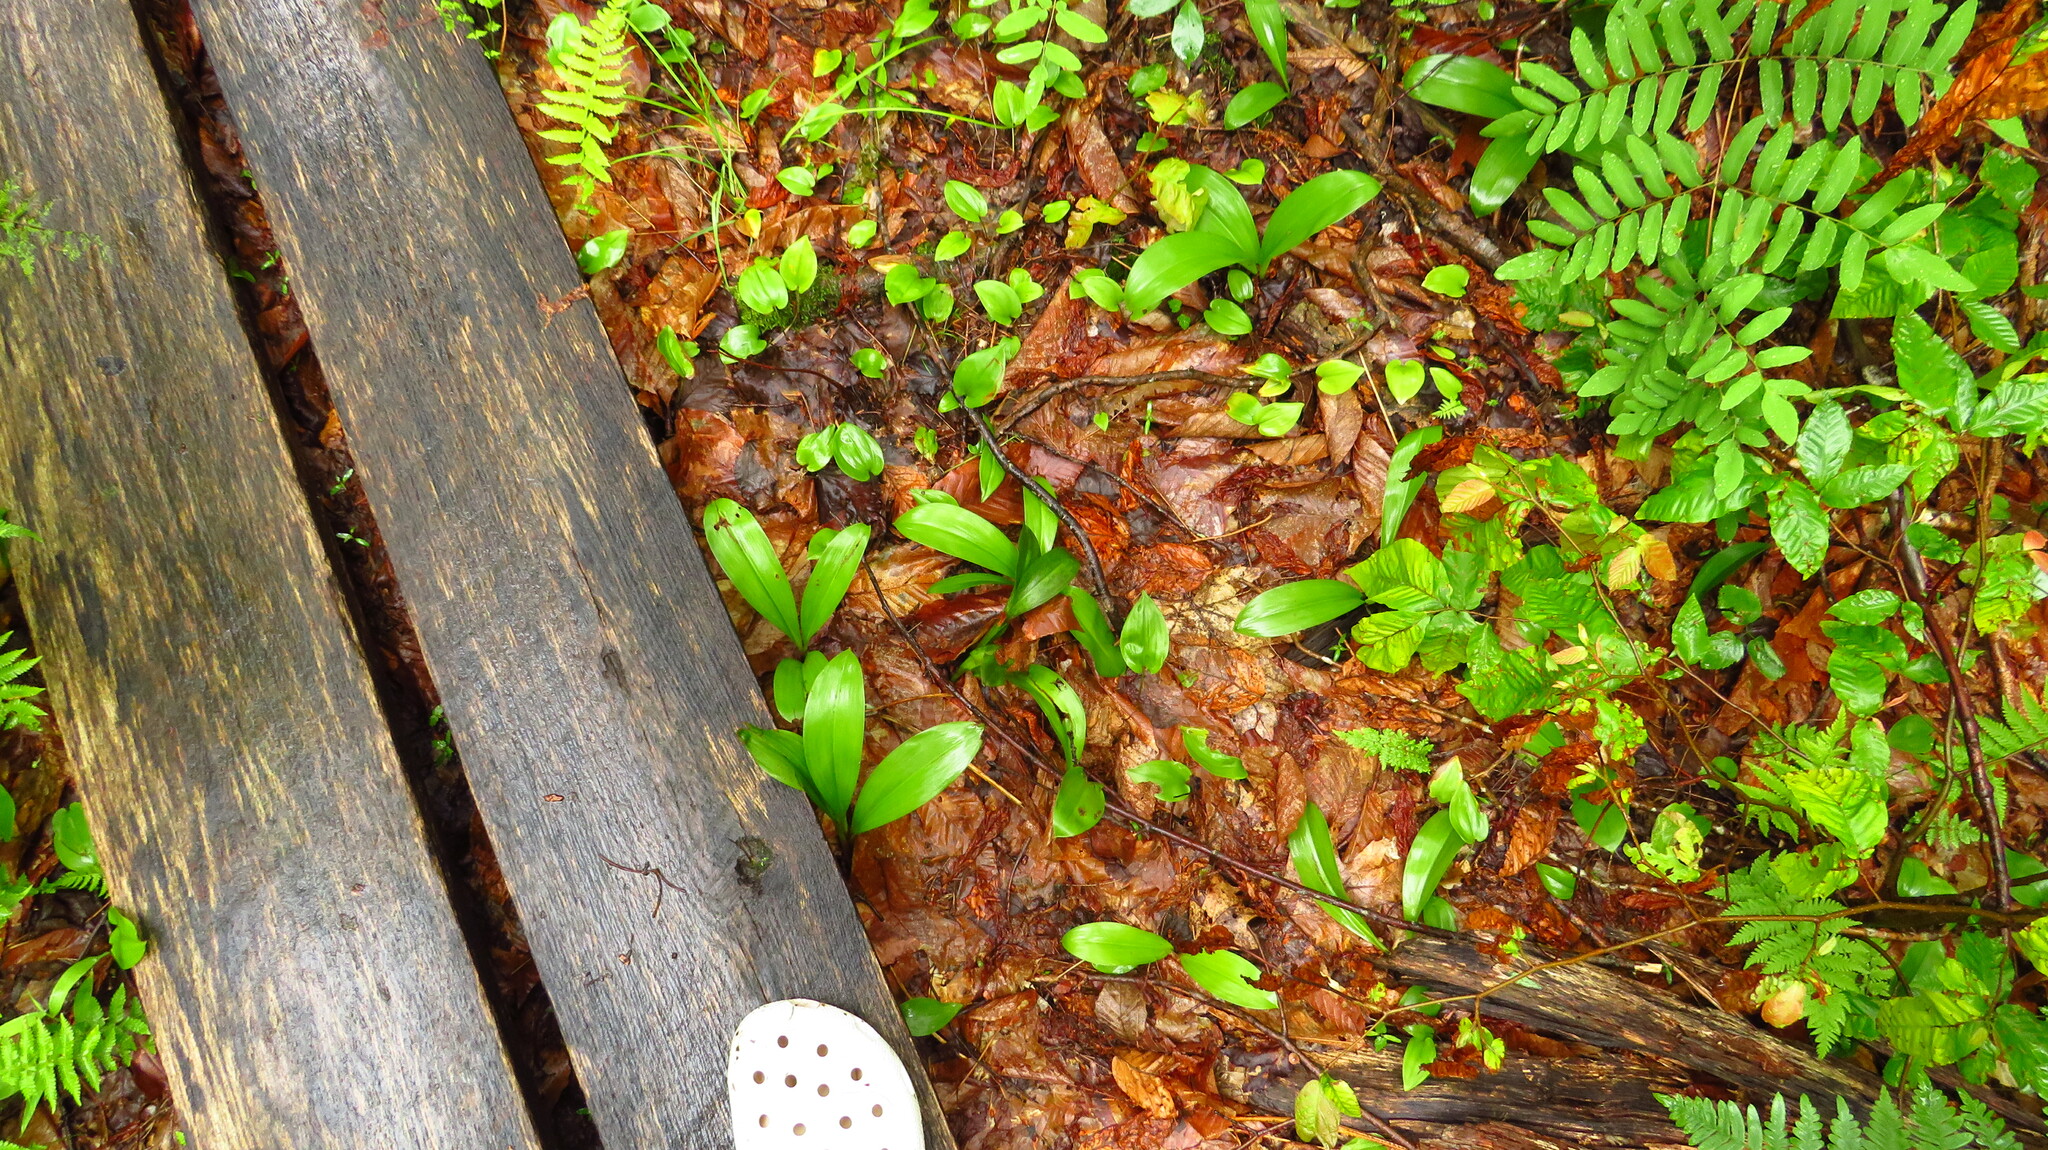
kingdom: Plantae
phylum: Tracheophyta
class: Liliopsida
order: Liliales
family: Liliaceae
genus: Clintonia
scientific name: Clintonia borealis
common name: Yellow clintonia
